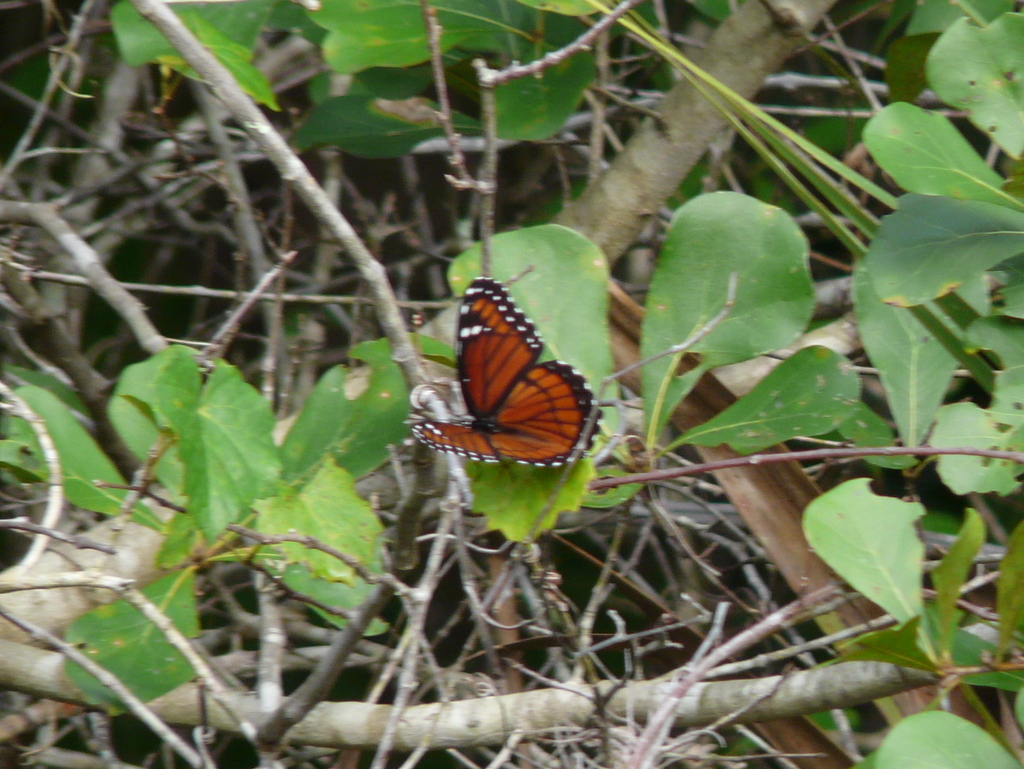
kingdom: Animalia
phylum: Arthropoda
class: Insecta
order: Lepidoptera
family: Nymphalidae
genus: Limenitis
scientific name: Limenitis archippus
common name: Viceroy
